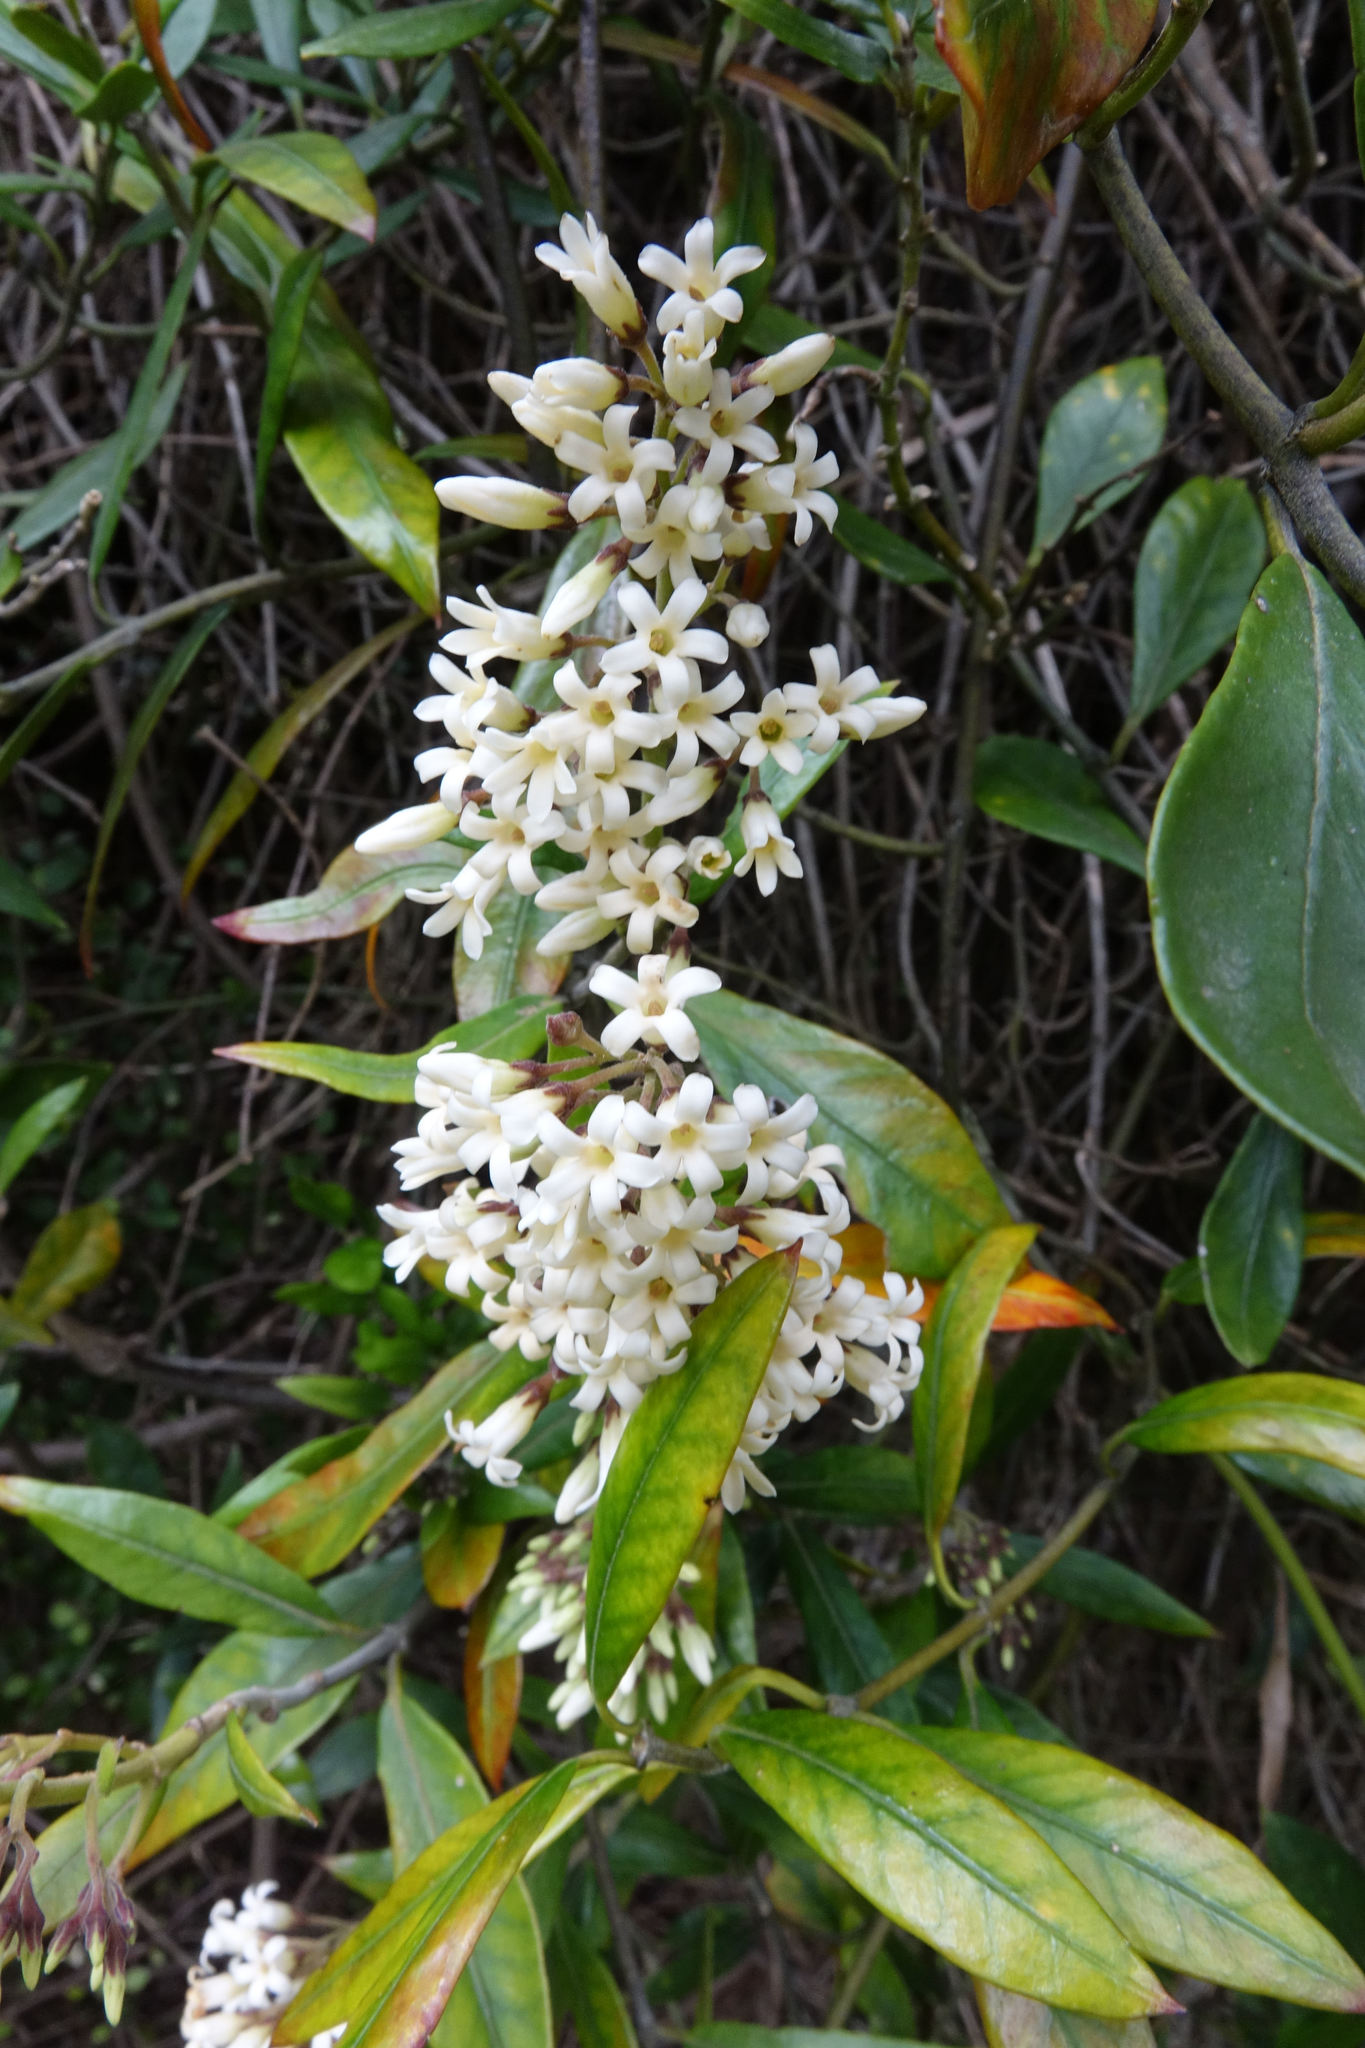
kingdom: Plantae
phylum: Tracheophyta
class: Magnoliopsida
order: Gentianales
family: Apocynaceae
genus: Parsonsia
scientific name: Parsonsia heterophylla
